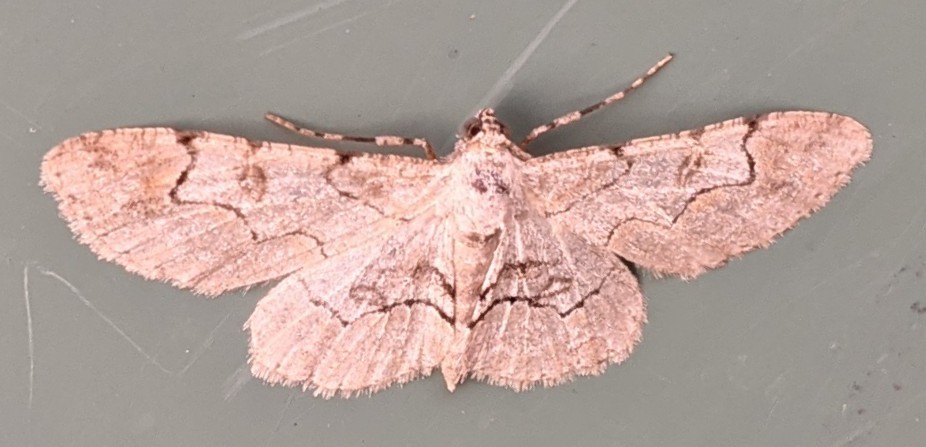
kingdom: Animalia
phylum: Arthropoda
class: Insecta
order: Lepidoptera
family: Geometridae
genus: Iridopsis
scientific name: Iridopsis larvaria
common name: Bent-line gray
